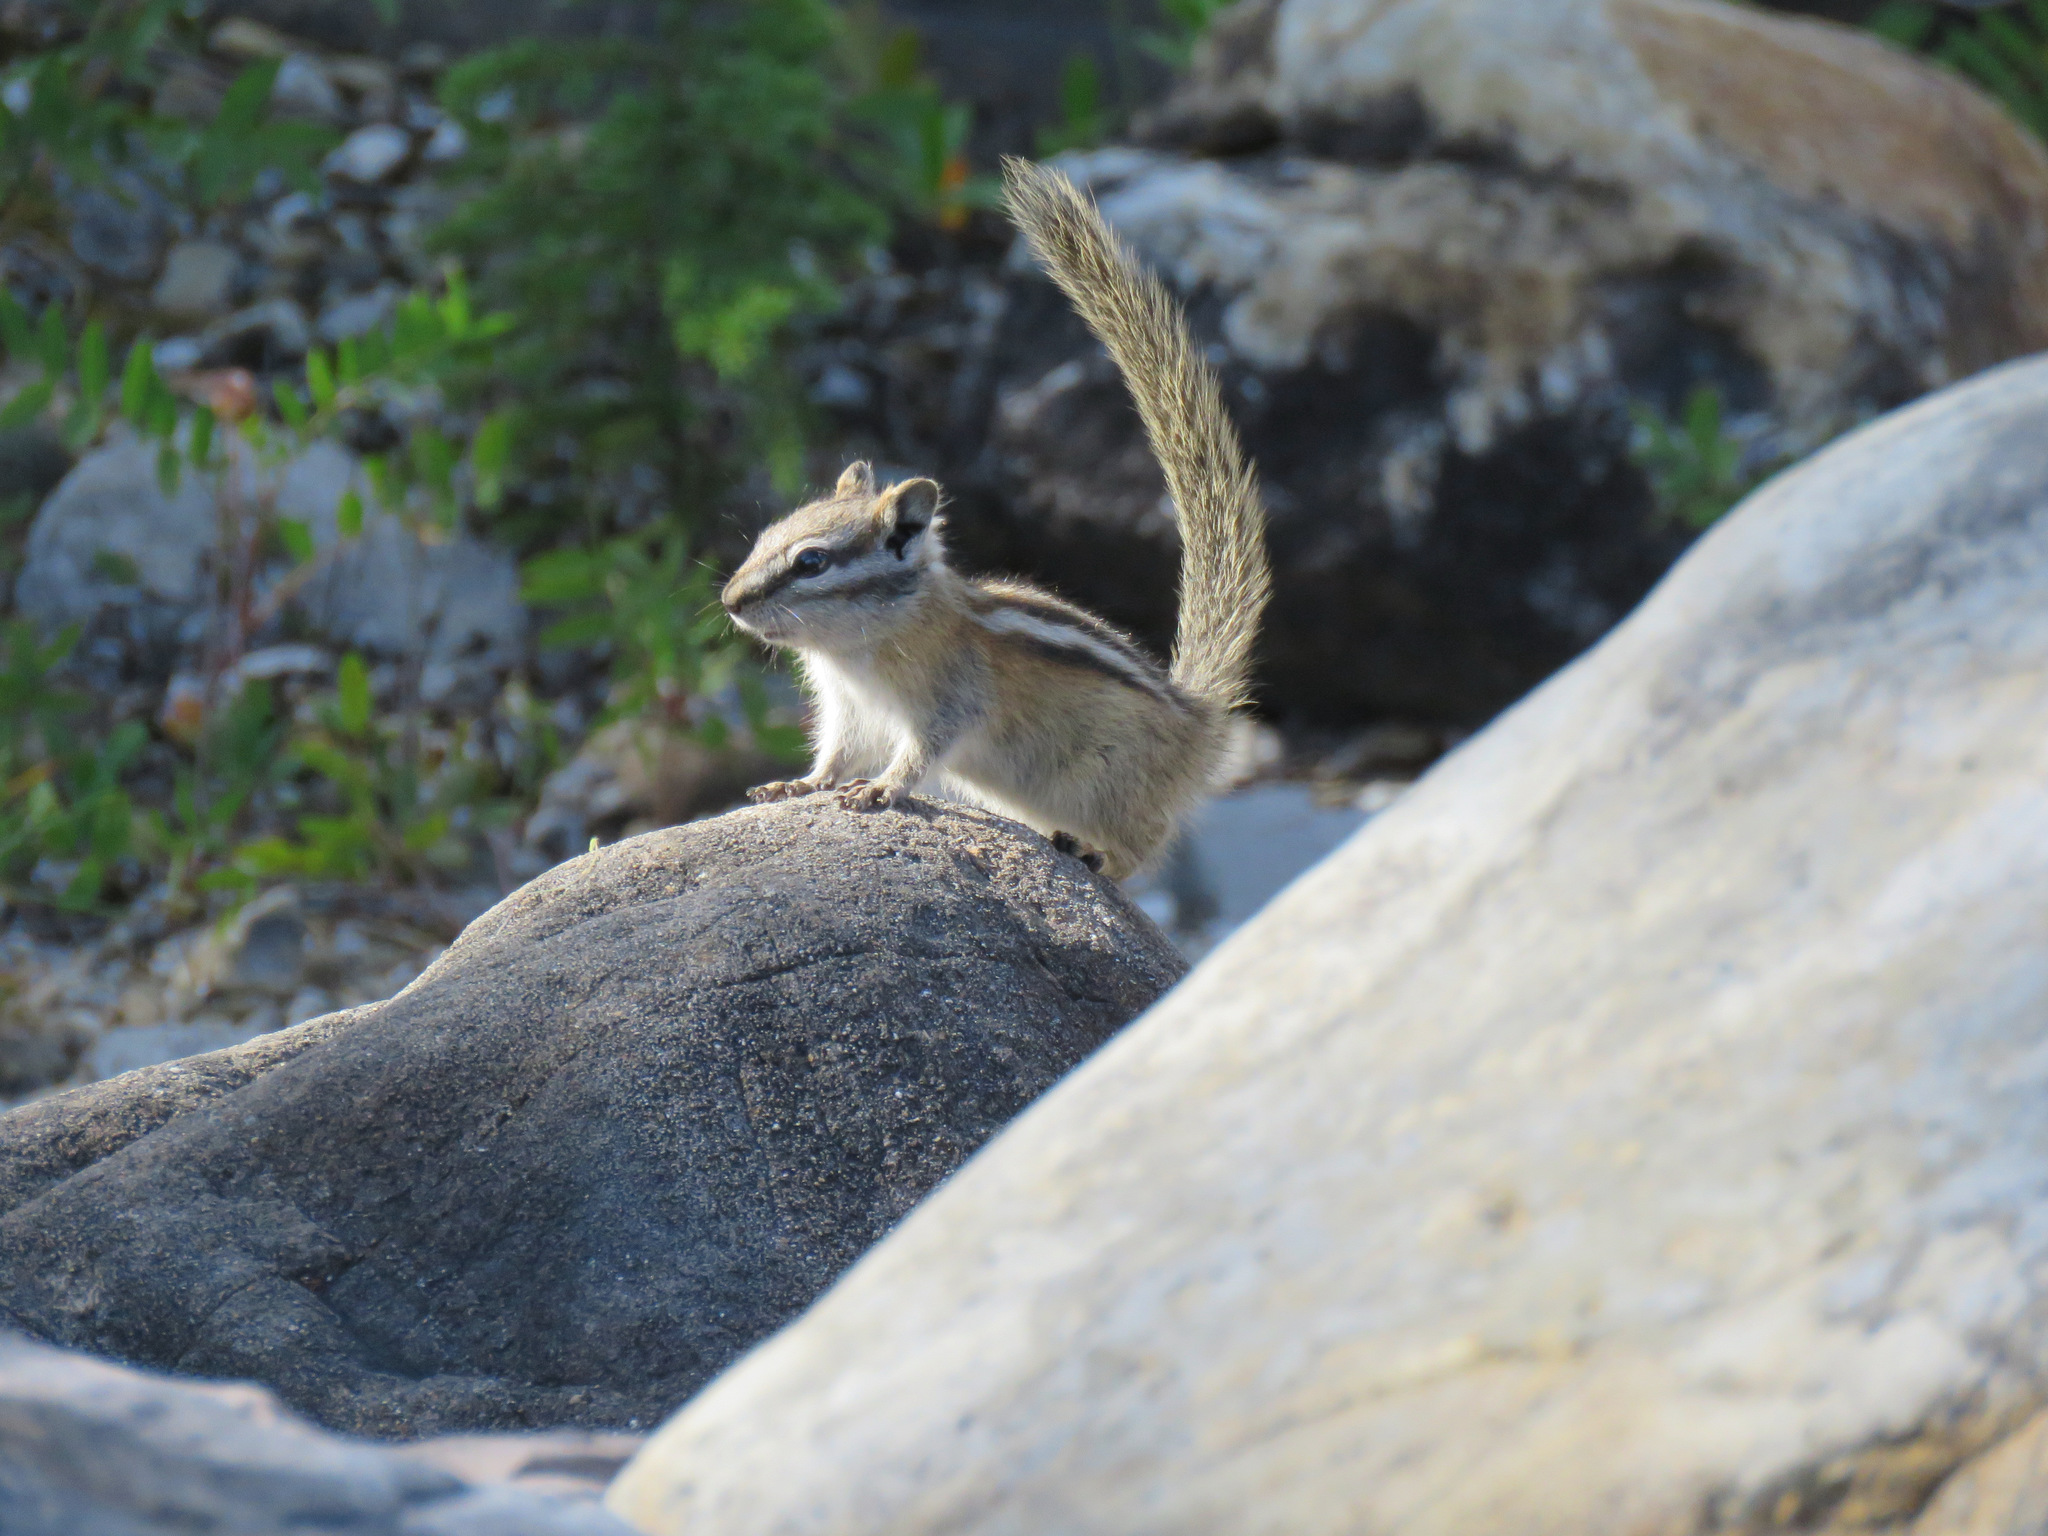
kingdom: Animalia
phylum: Chordata
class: Mammalia
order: Rodentia
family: Sciuridae
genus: Tamias
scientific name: Tamias minimus
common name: Least chipmunk
